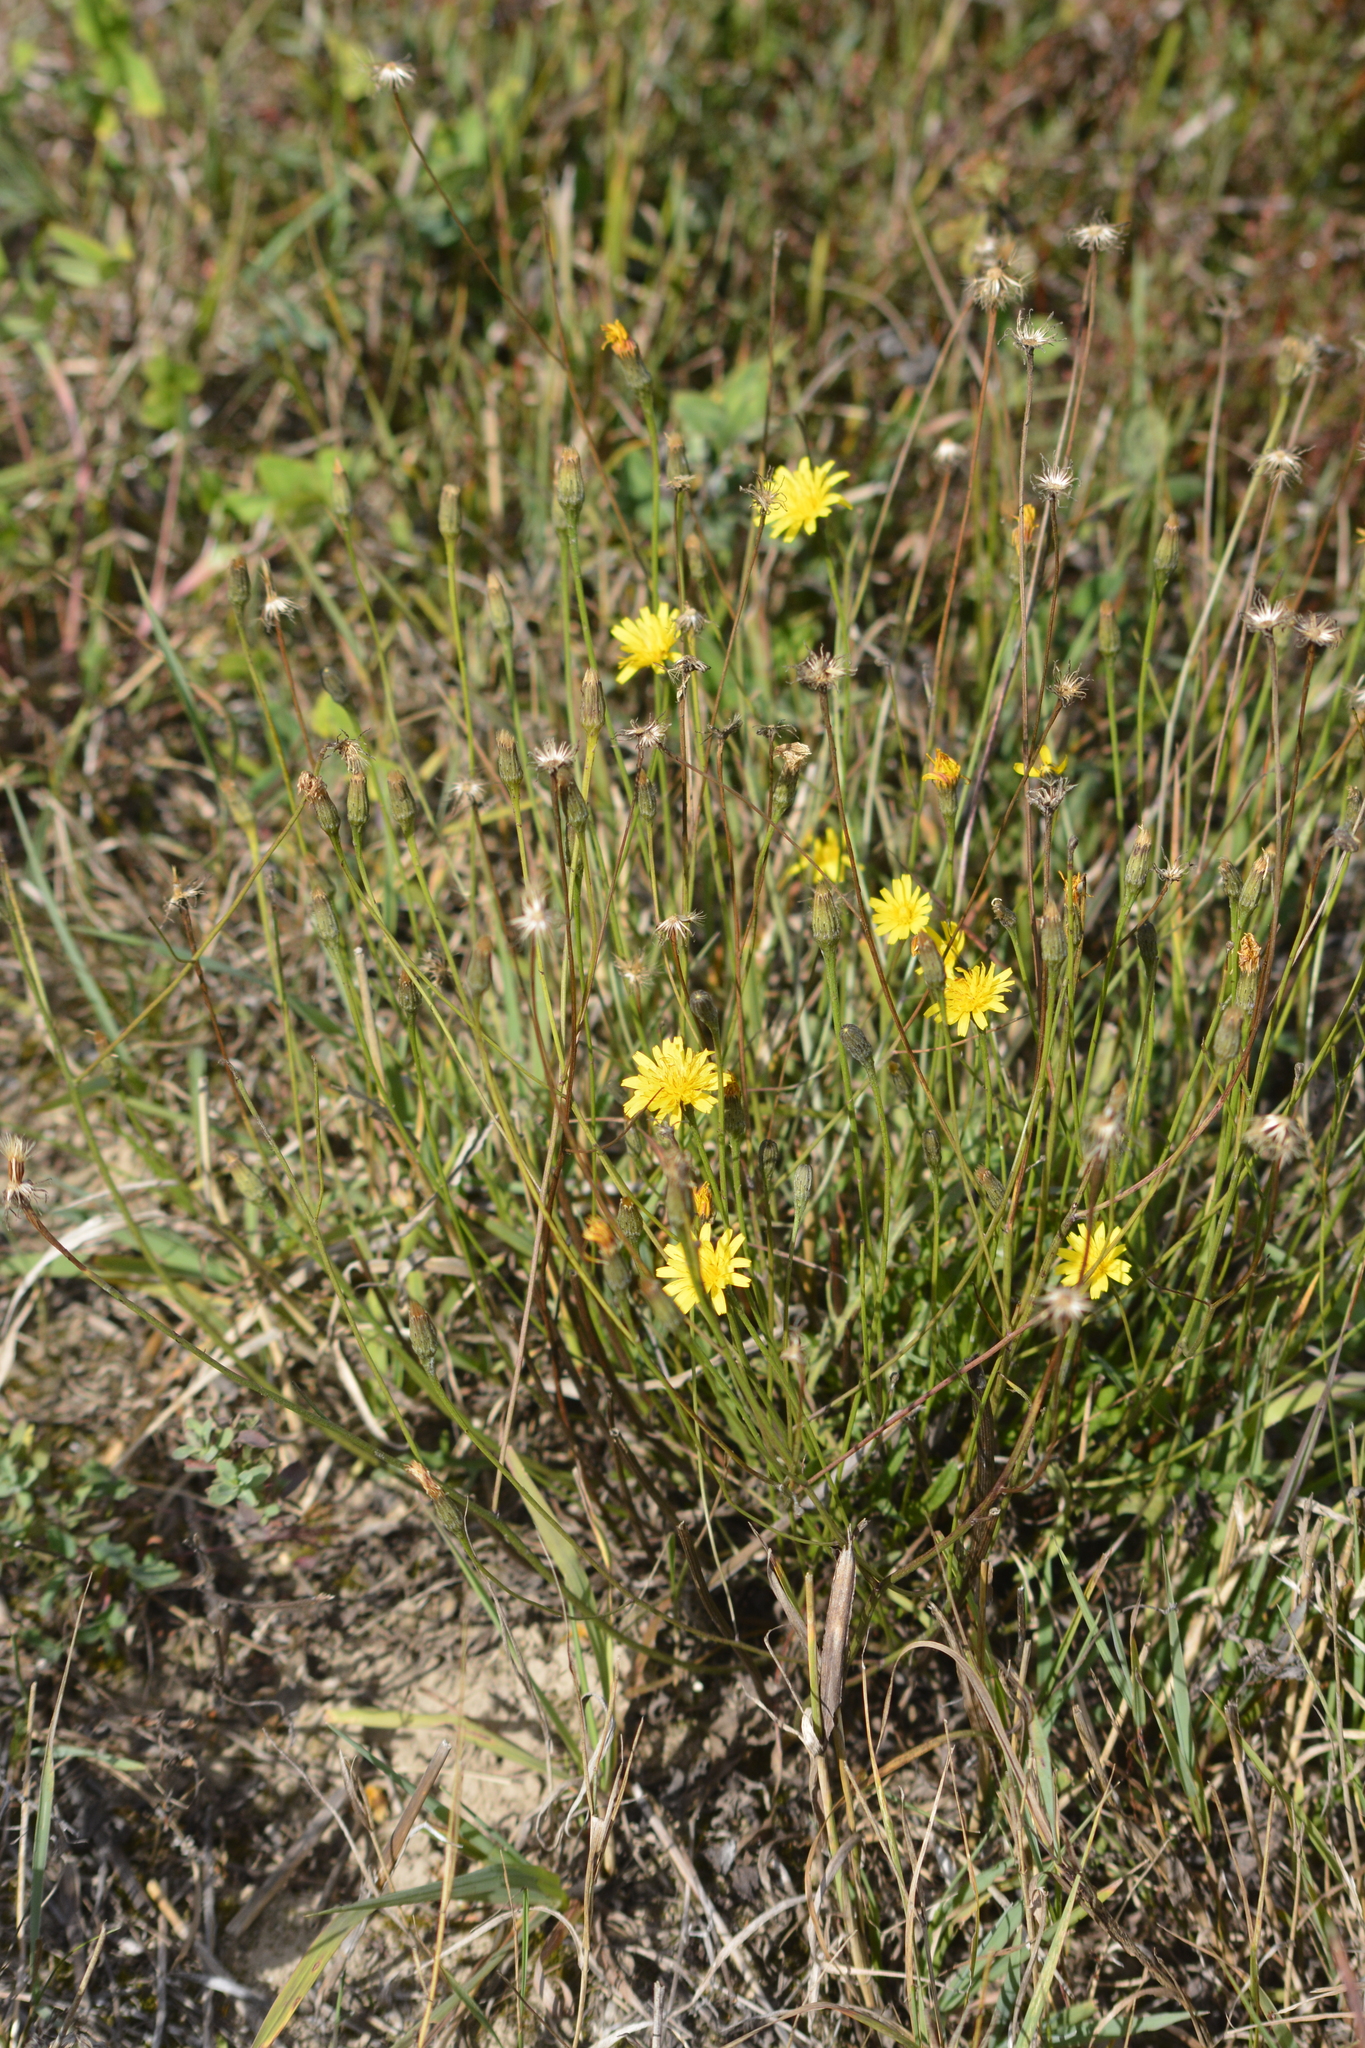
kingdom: Plantae
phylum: Tracheophyta
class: Magnoliopsida
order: Asterales
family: Asteraceae
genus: Scorzoneroides
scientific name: Scorzoneroides autumnalis
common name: Autumn hawkbit
